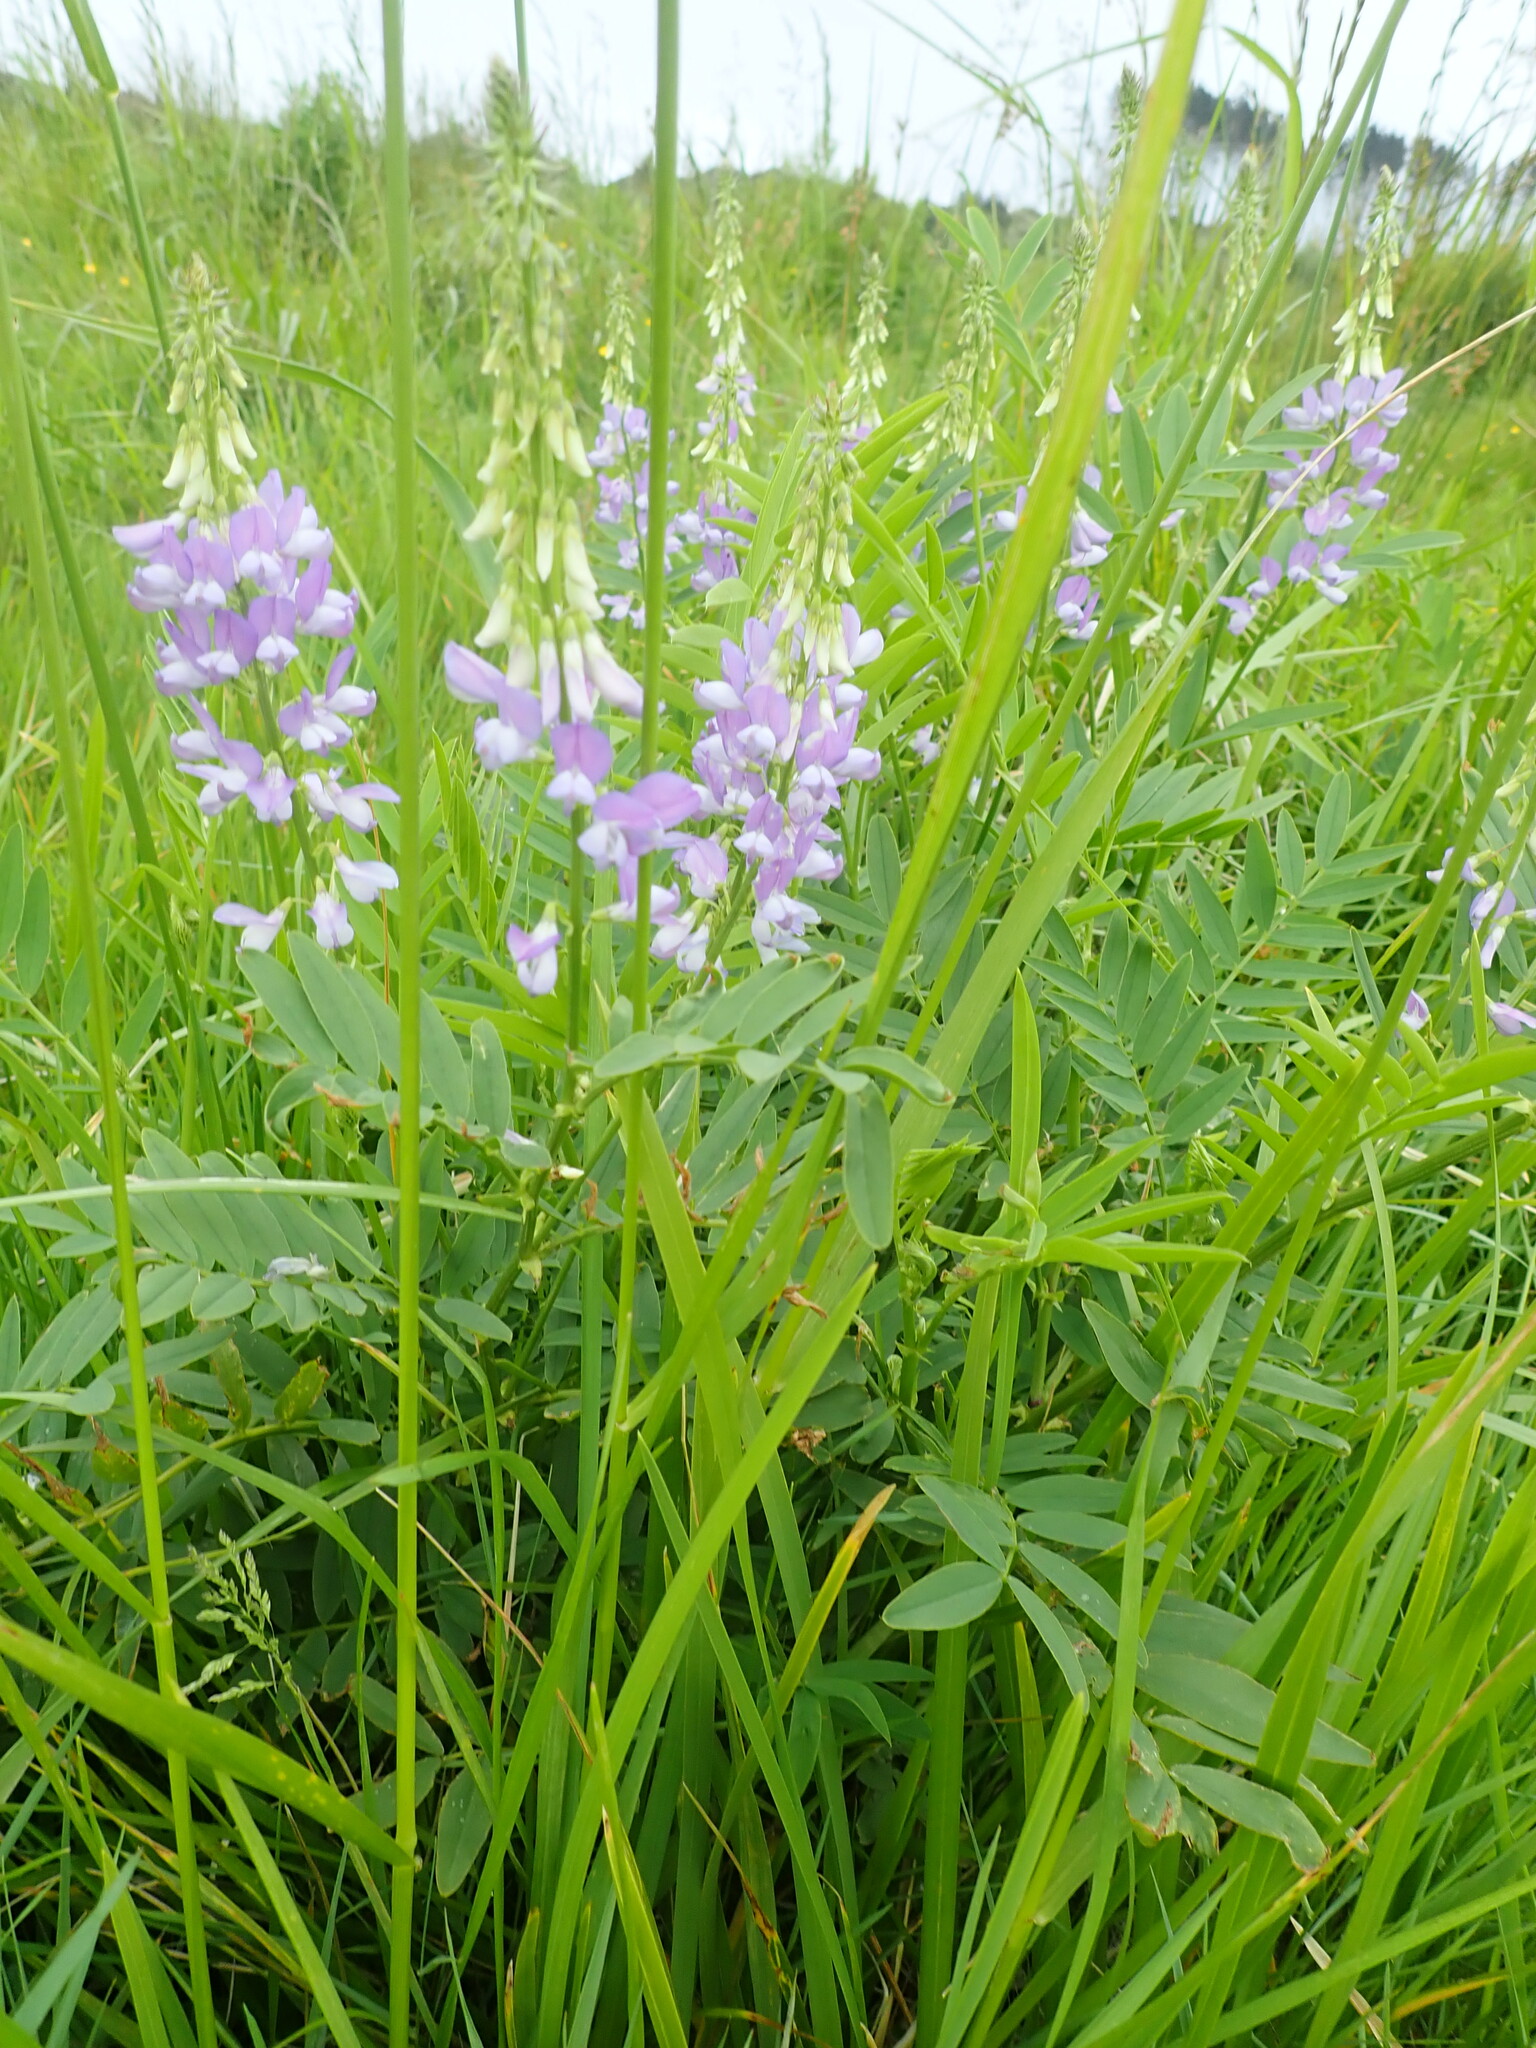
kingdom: Plantae
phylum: Tracheophyta
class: Magnoliopsida
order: Fabales
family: Fabaceae
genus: Galega
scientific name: Galega officinalis
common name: Goat's-rue
